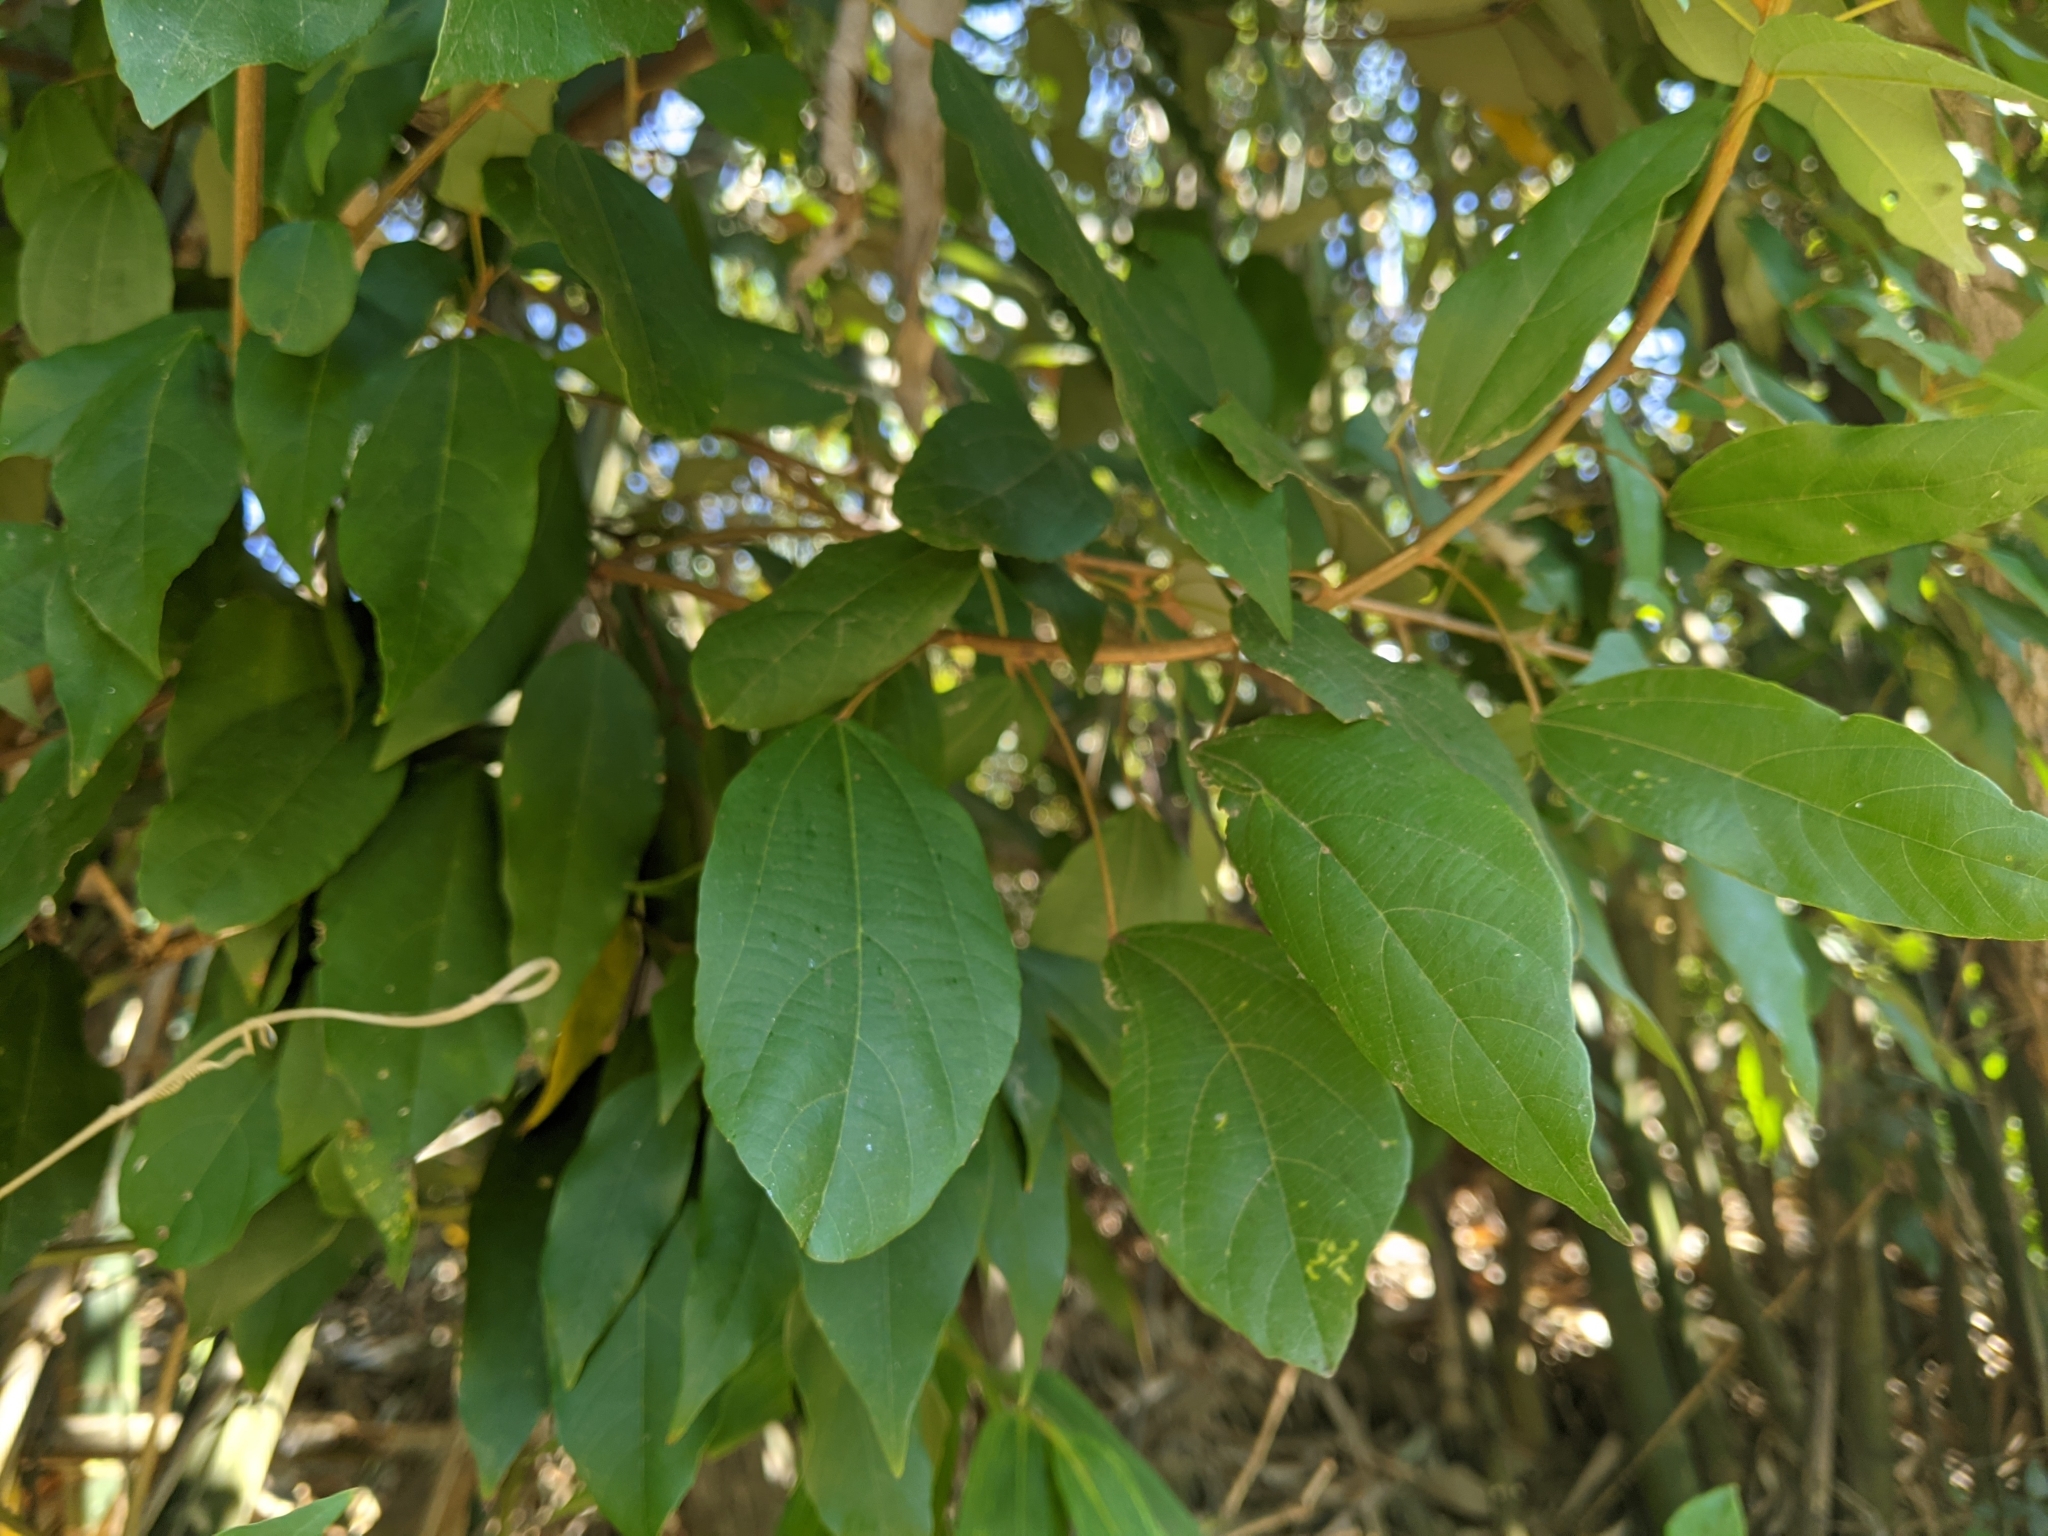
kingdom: Plantae
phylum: Tracheophyta
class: Magnoliopsida
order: Malpighiales
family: Euphorbiaceae
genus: Mallotus
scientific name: Mallotus philippensis
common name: Kamala tree
